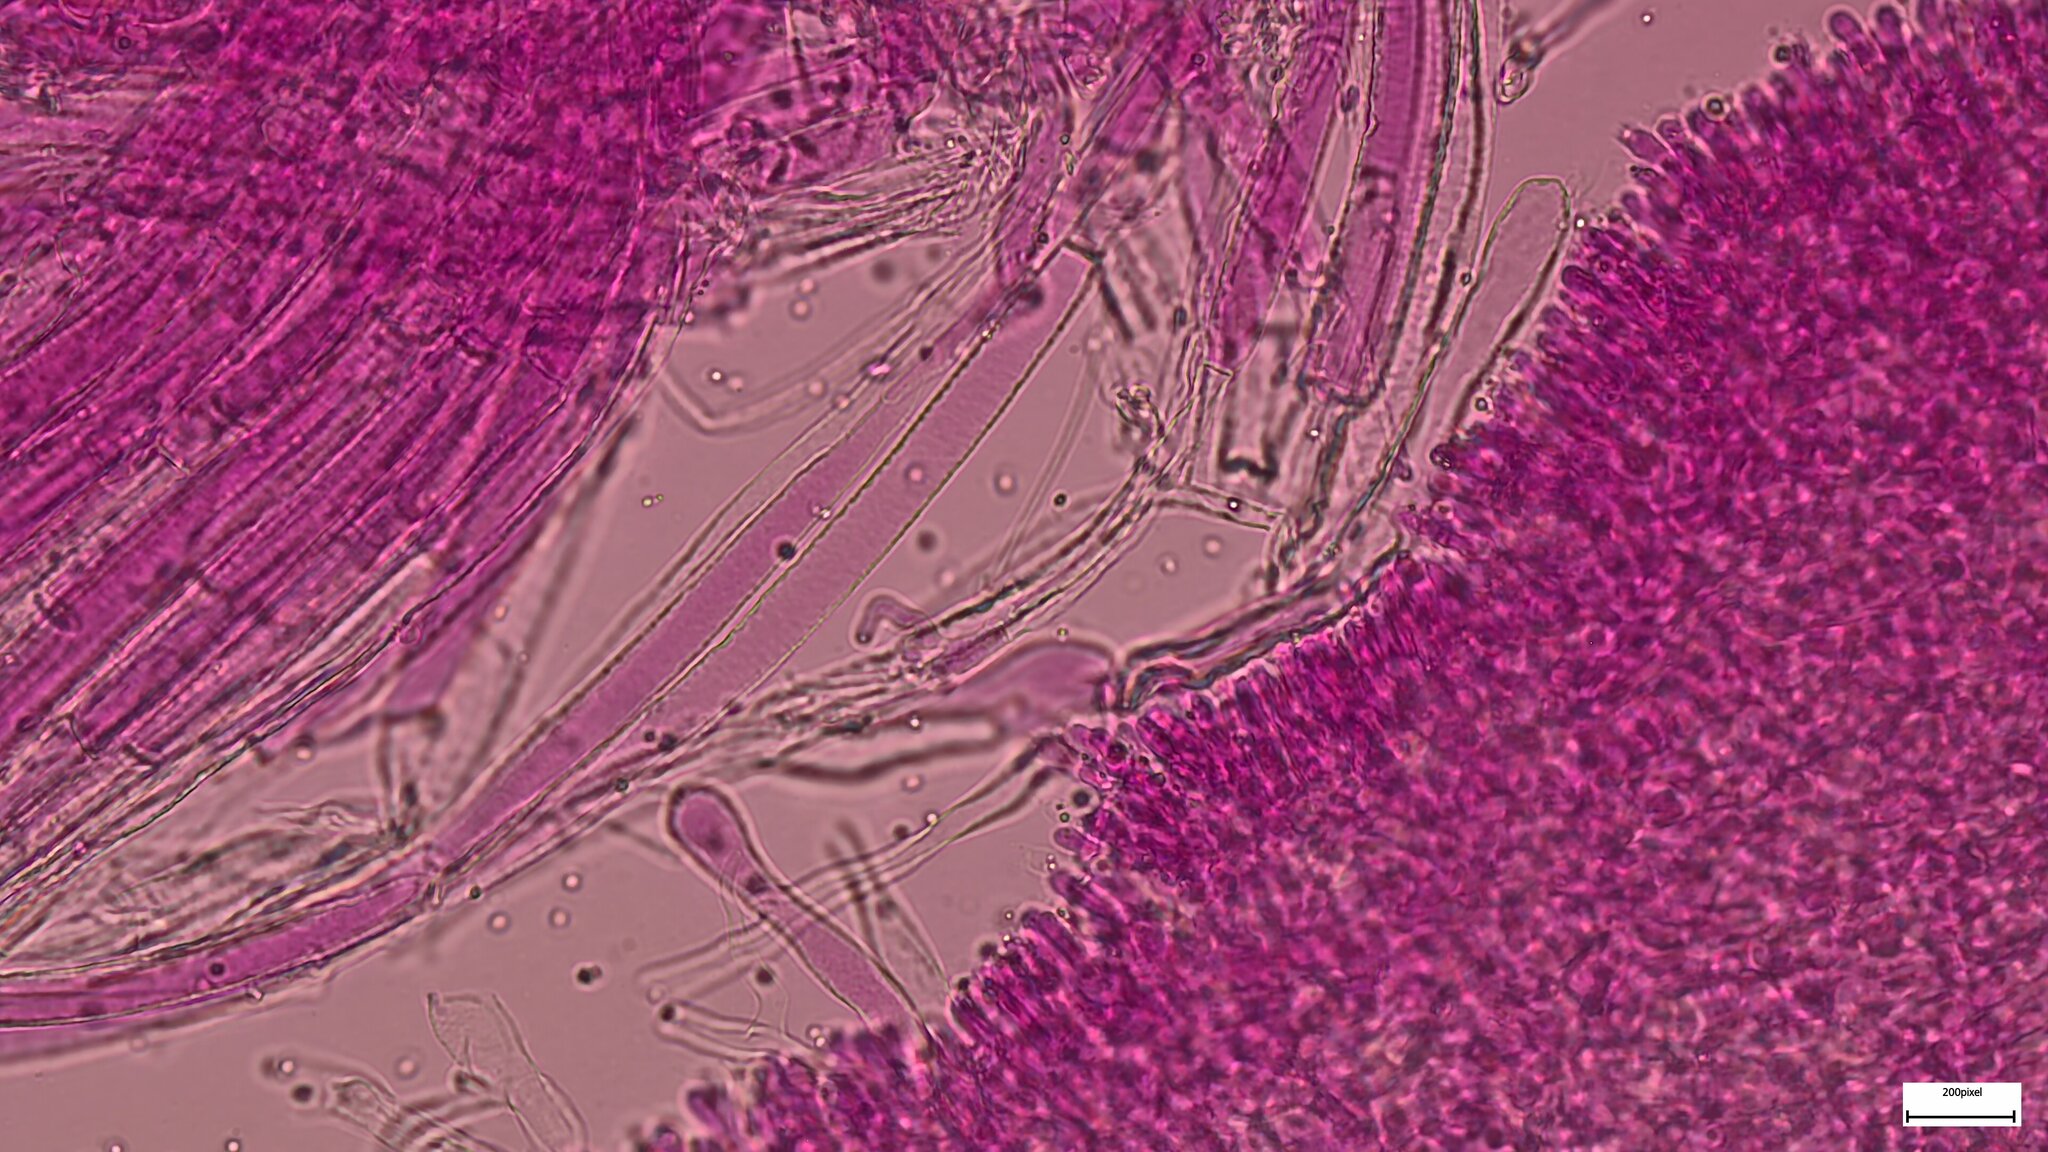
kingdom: Fungi
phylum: Basidiomycota
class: Agaricomycetes
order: Agaricales
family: Mycenaceae
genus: Mycena
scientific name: Mycena laevigata
